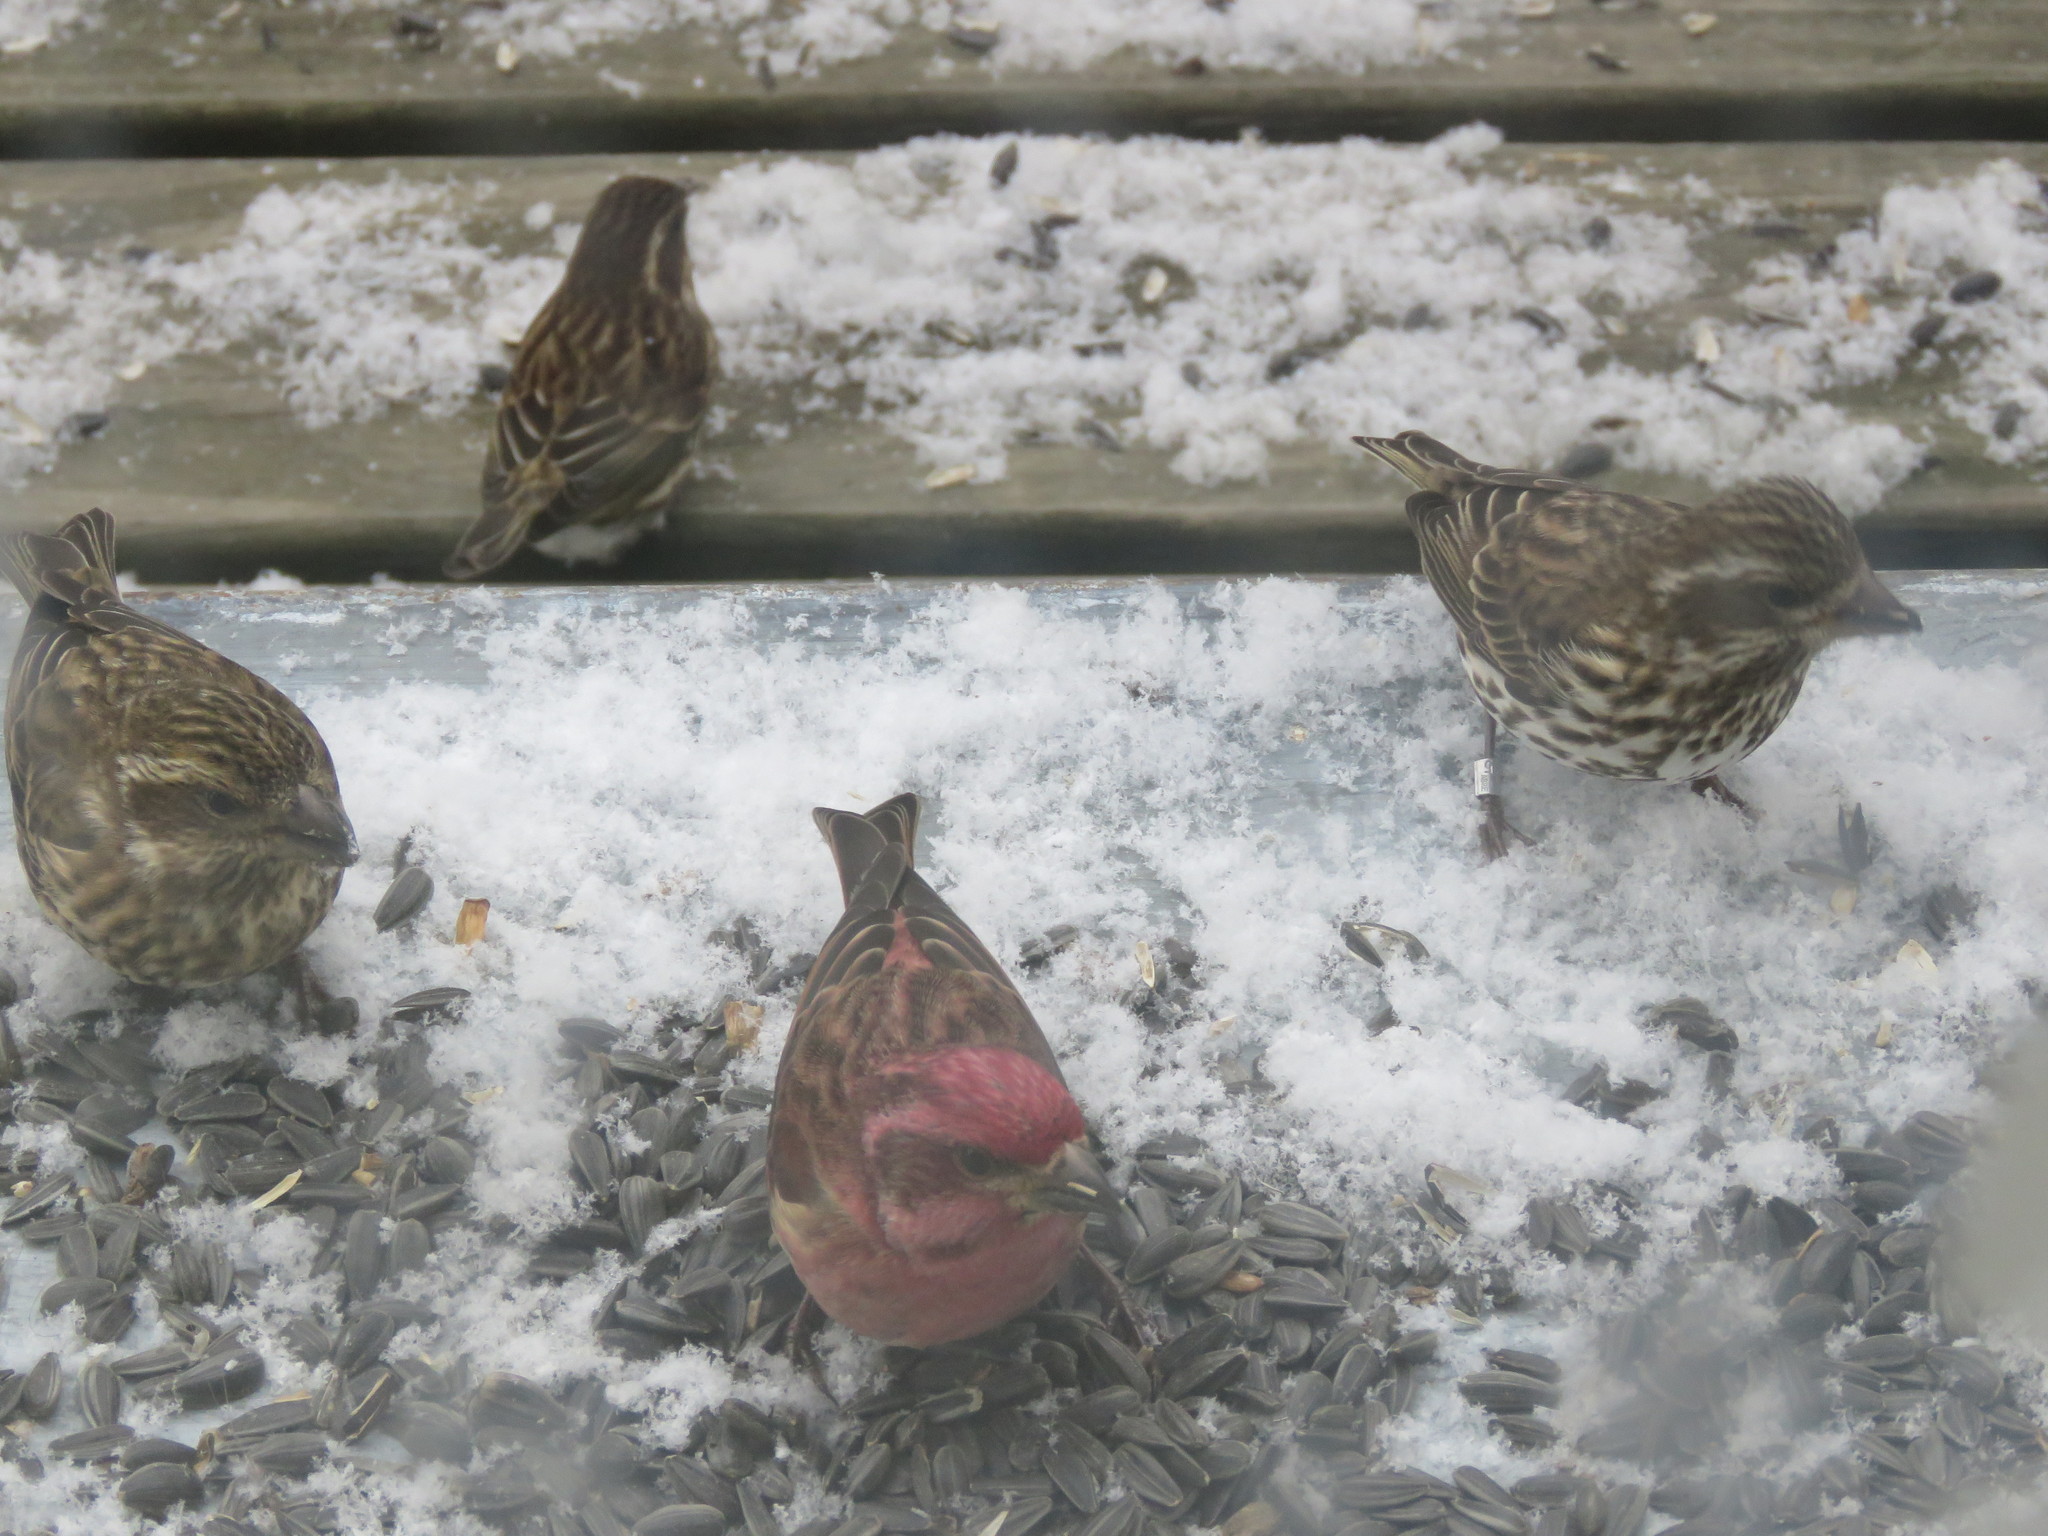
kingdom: Animalia
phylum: Chordata
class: Aves
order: Passeriformes
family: Fringillidae
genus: Haemorhous
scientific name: Haemorhous purpureus
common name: Purple finch
